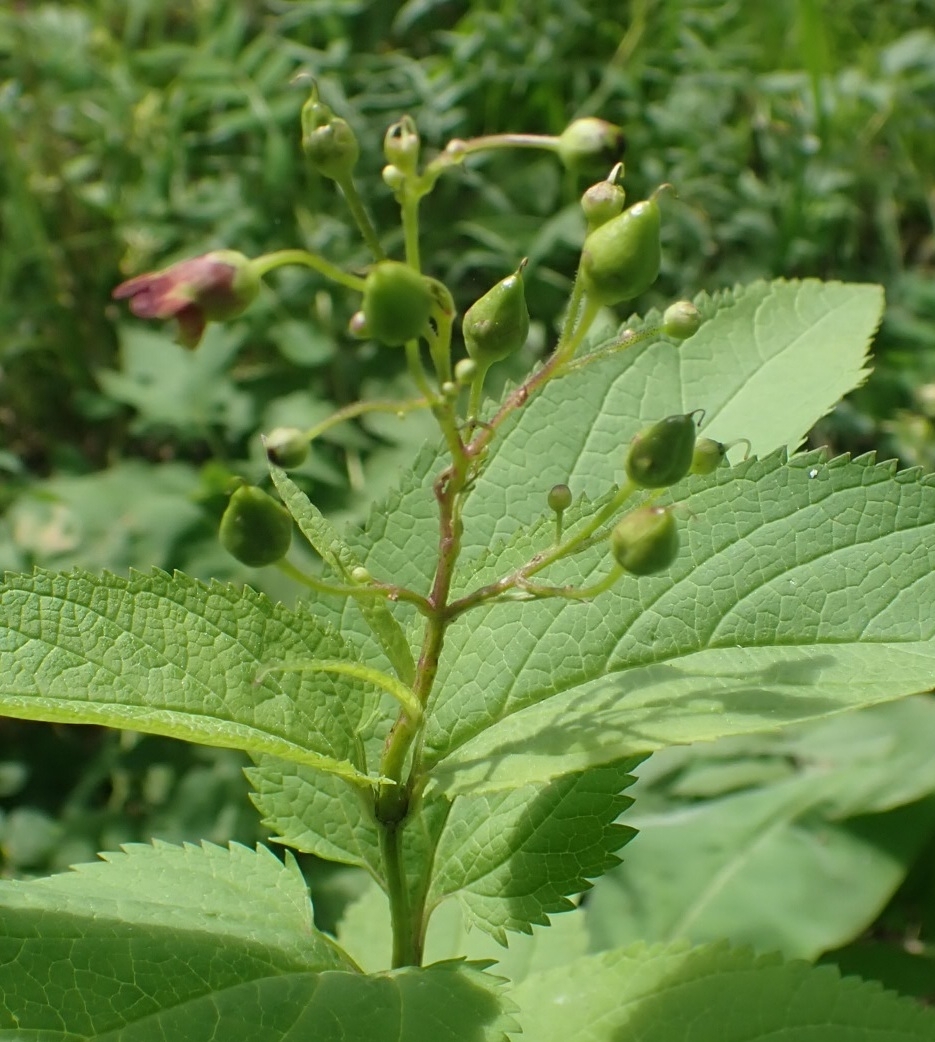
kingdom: Plantae
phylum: Tracheophyta
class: Magnoliopsida
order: Lamiales
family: Scrophulariaceae
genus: Scrophularia
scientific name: Scrophularia nodosa
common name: Common figwort
